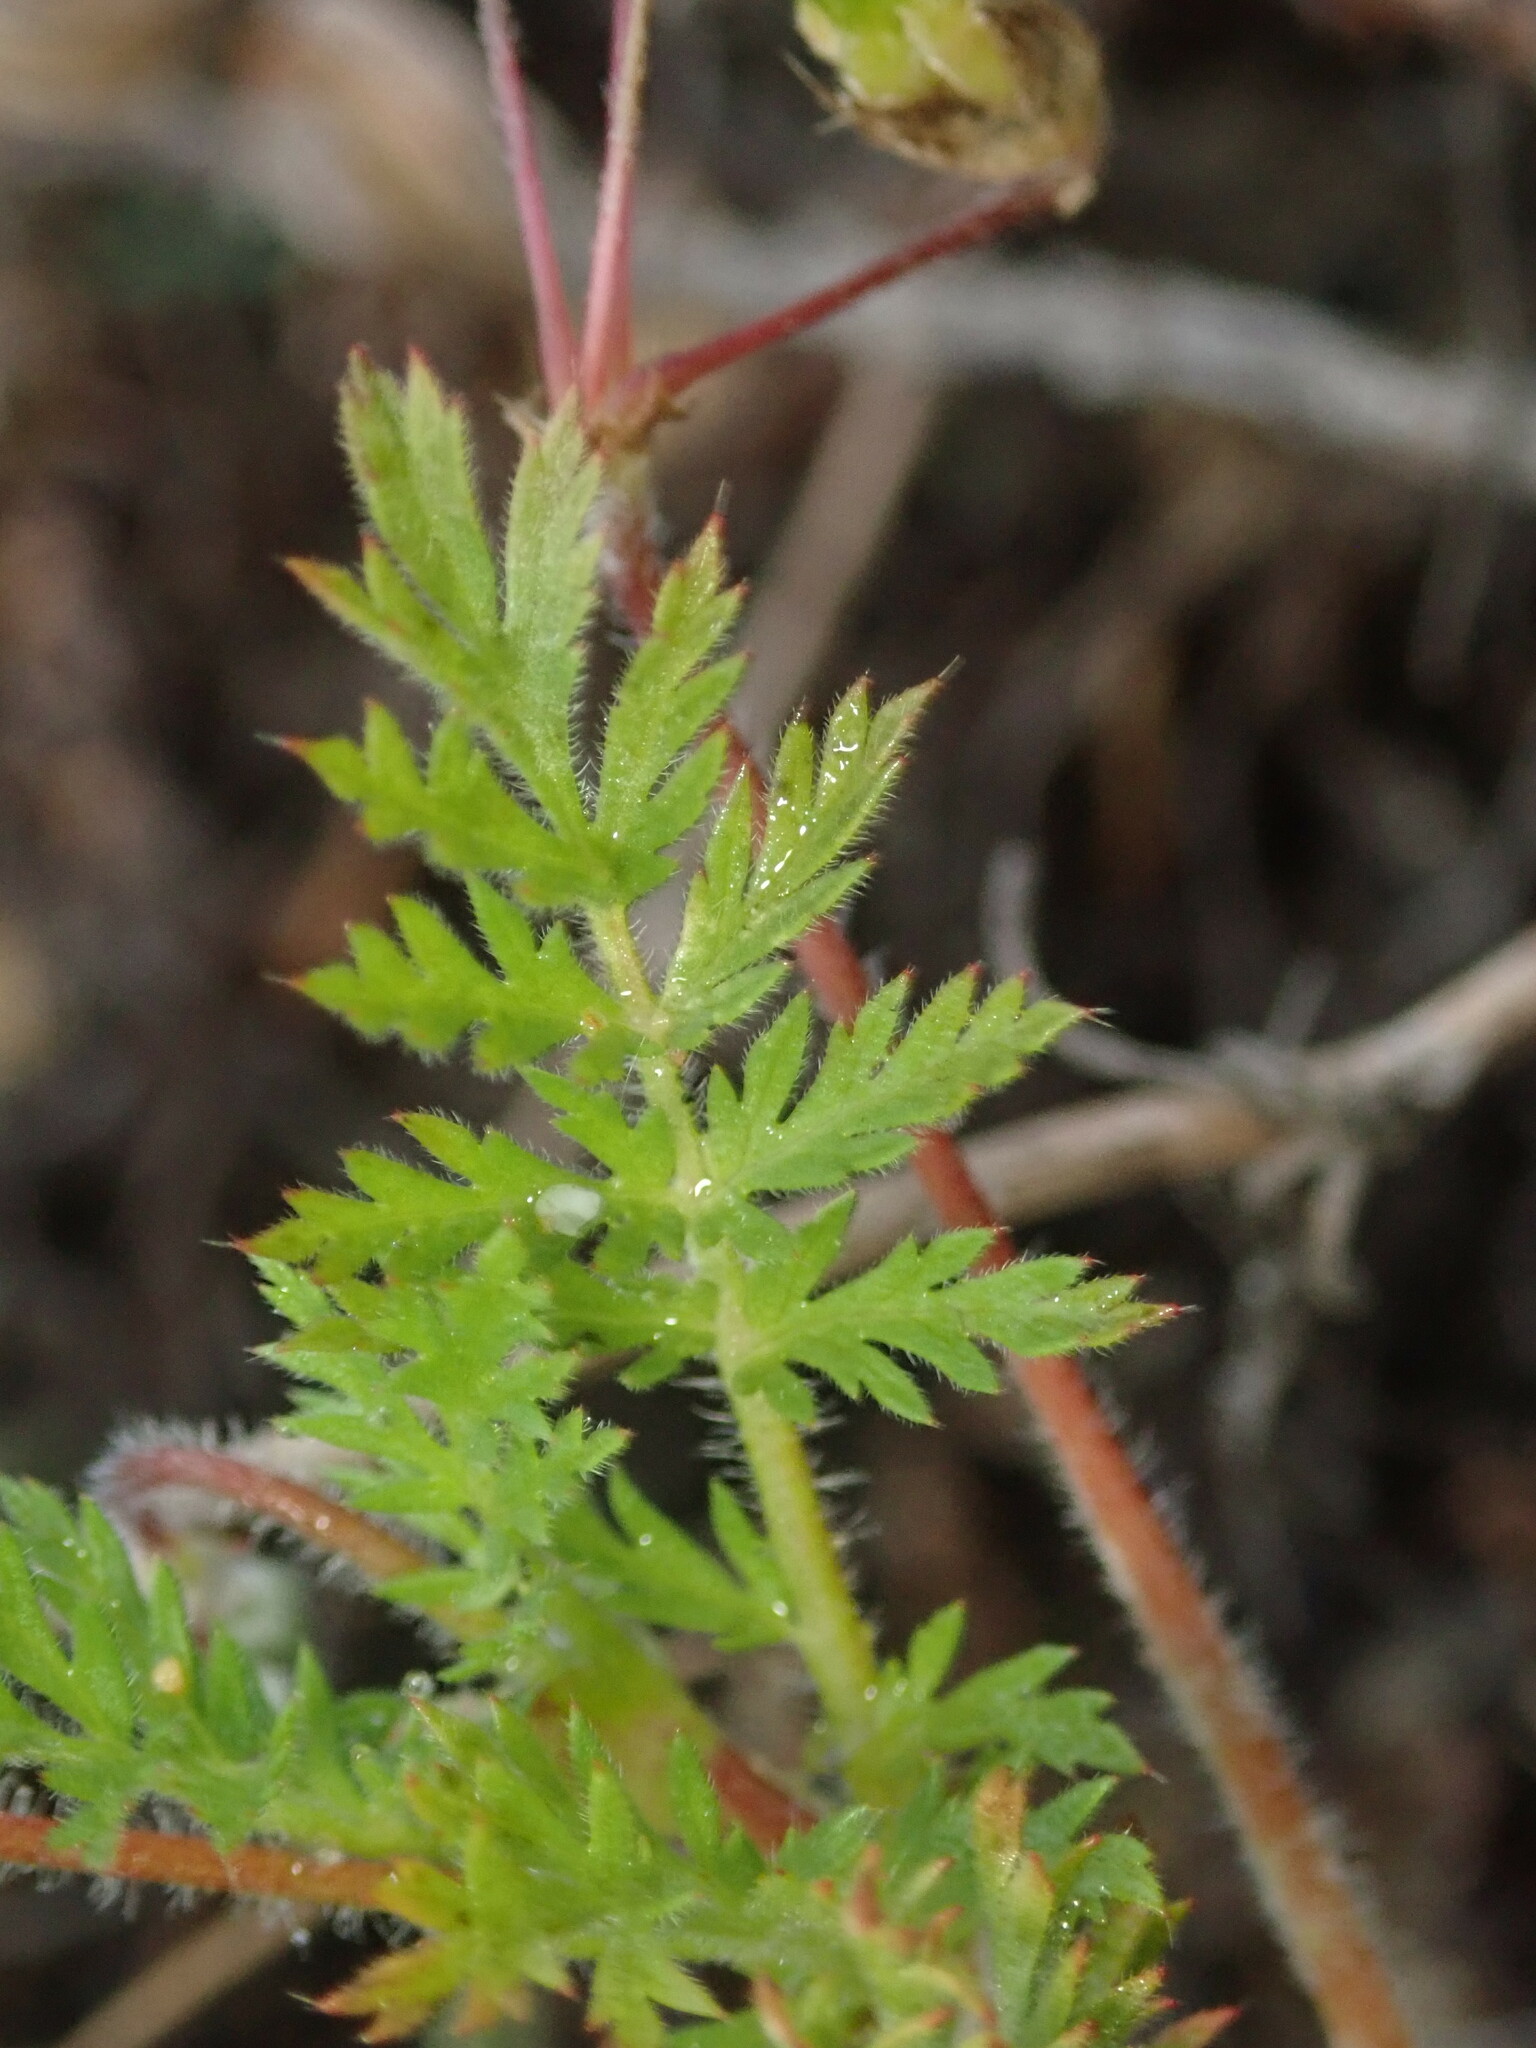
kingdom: Plantae
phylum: Tracheophyta
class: Magnoliopsida
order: Geraniales
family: Geraniaceae
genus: Erodium
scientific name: Erodium cicutarium
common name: Common stork's-bill
